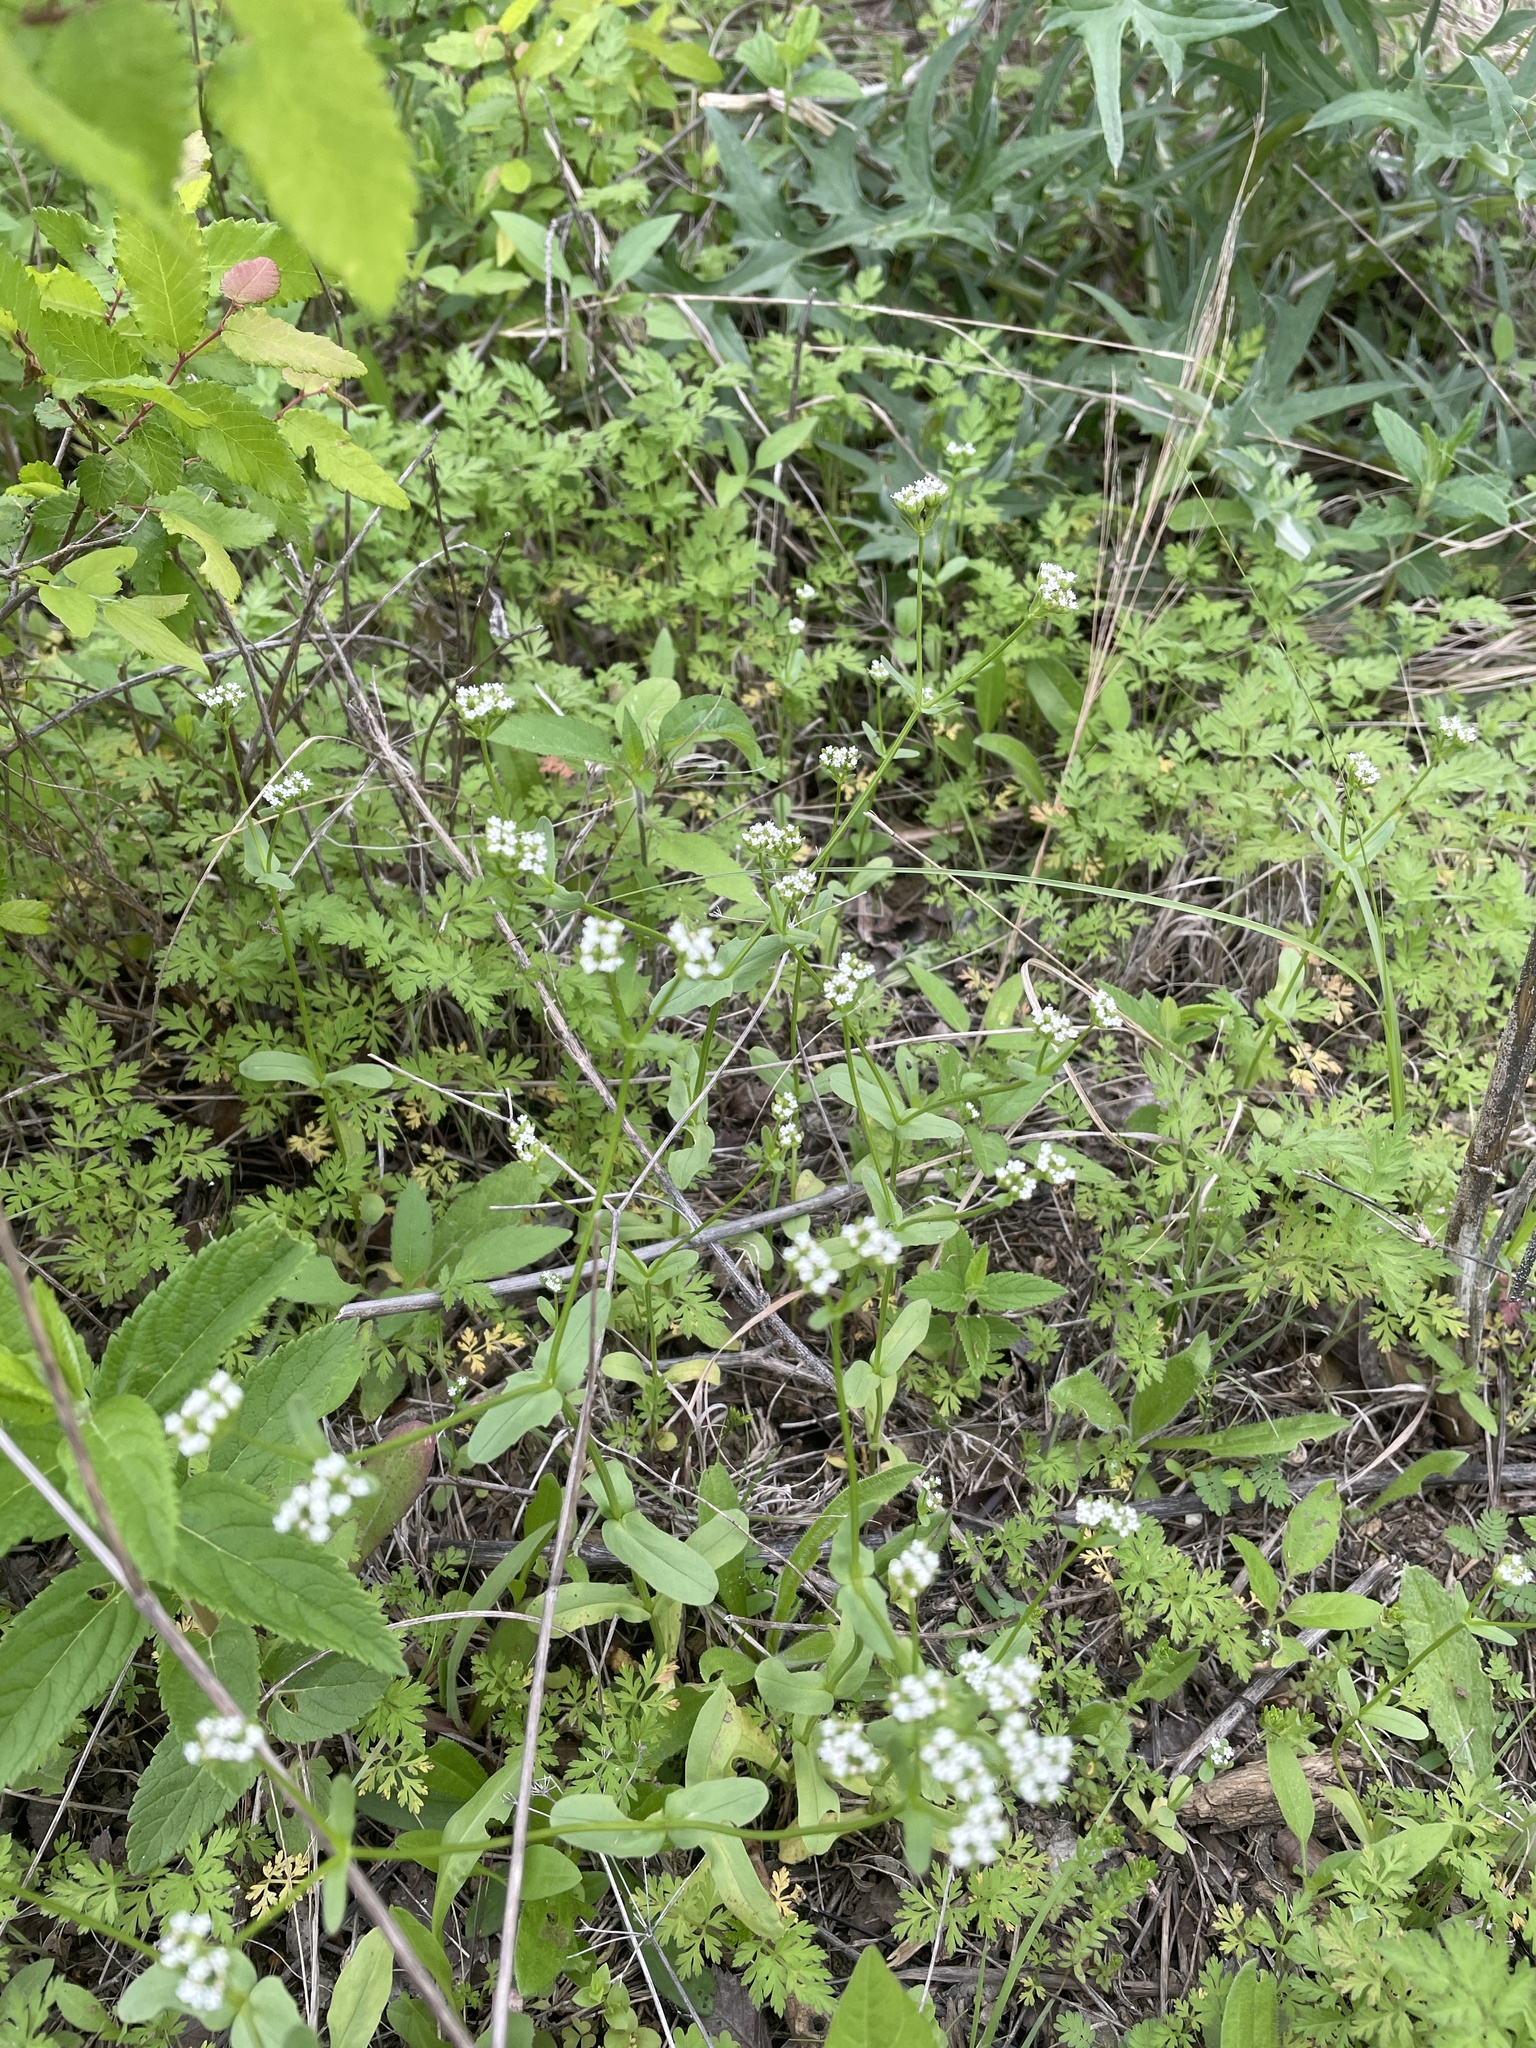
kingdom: Plantae
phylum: Tracheophyta
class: Magnoliopsida
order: Dipsacales
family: Caprifoliaceae
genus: Valerianella
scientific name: Valerianella radiata
